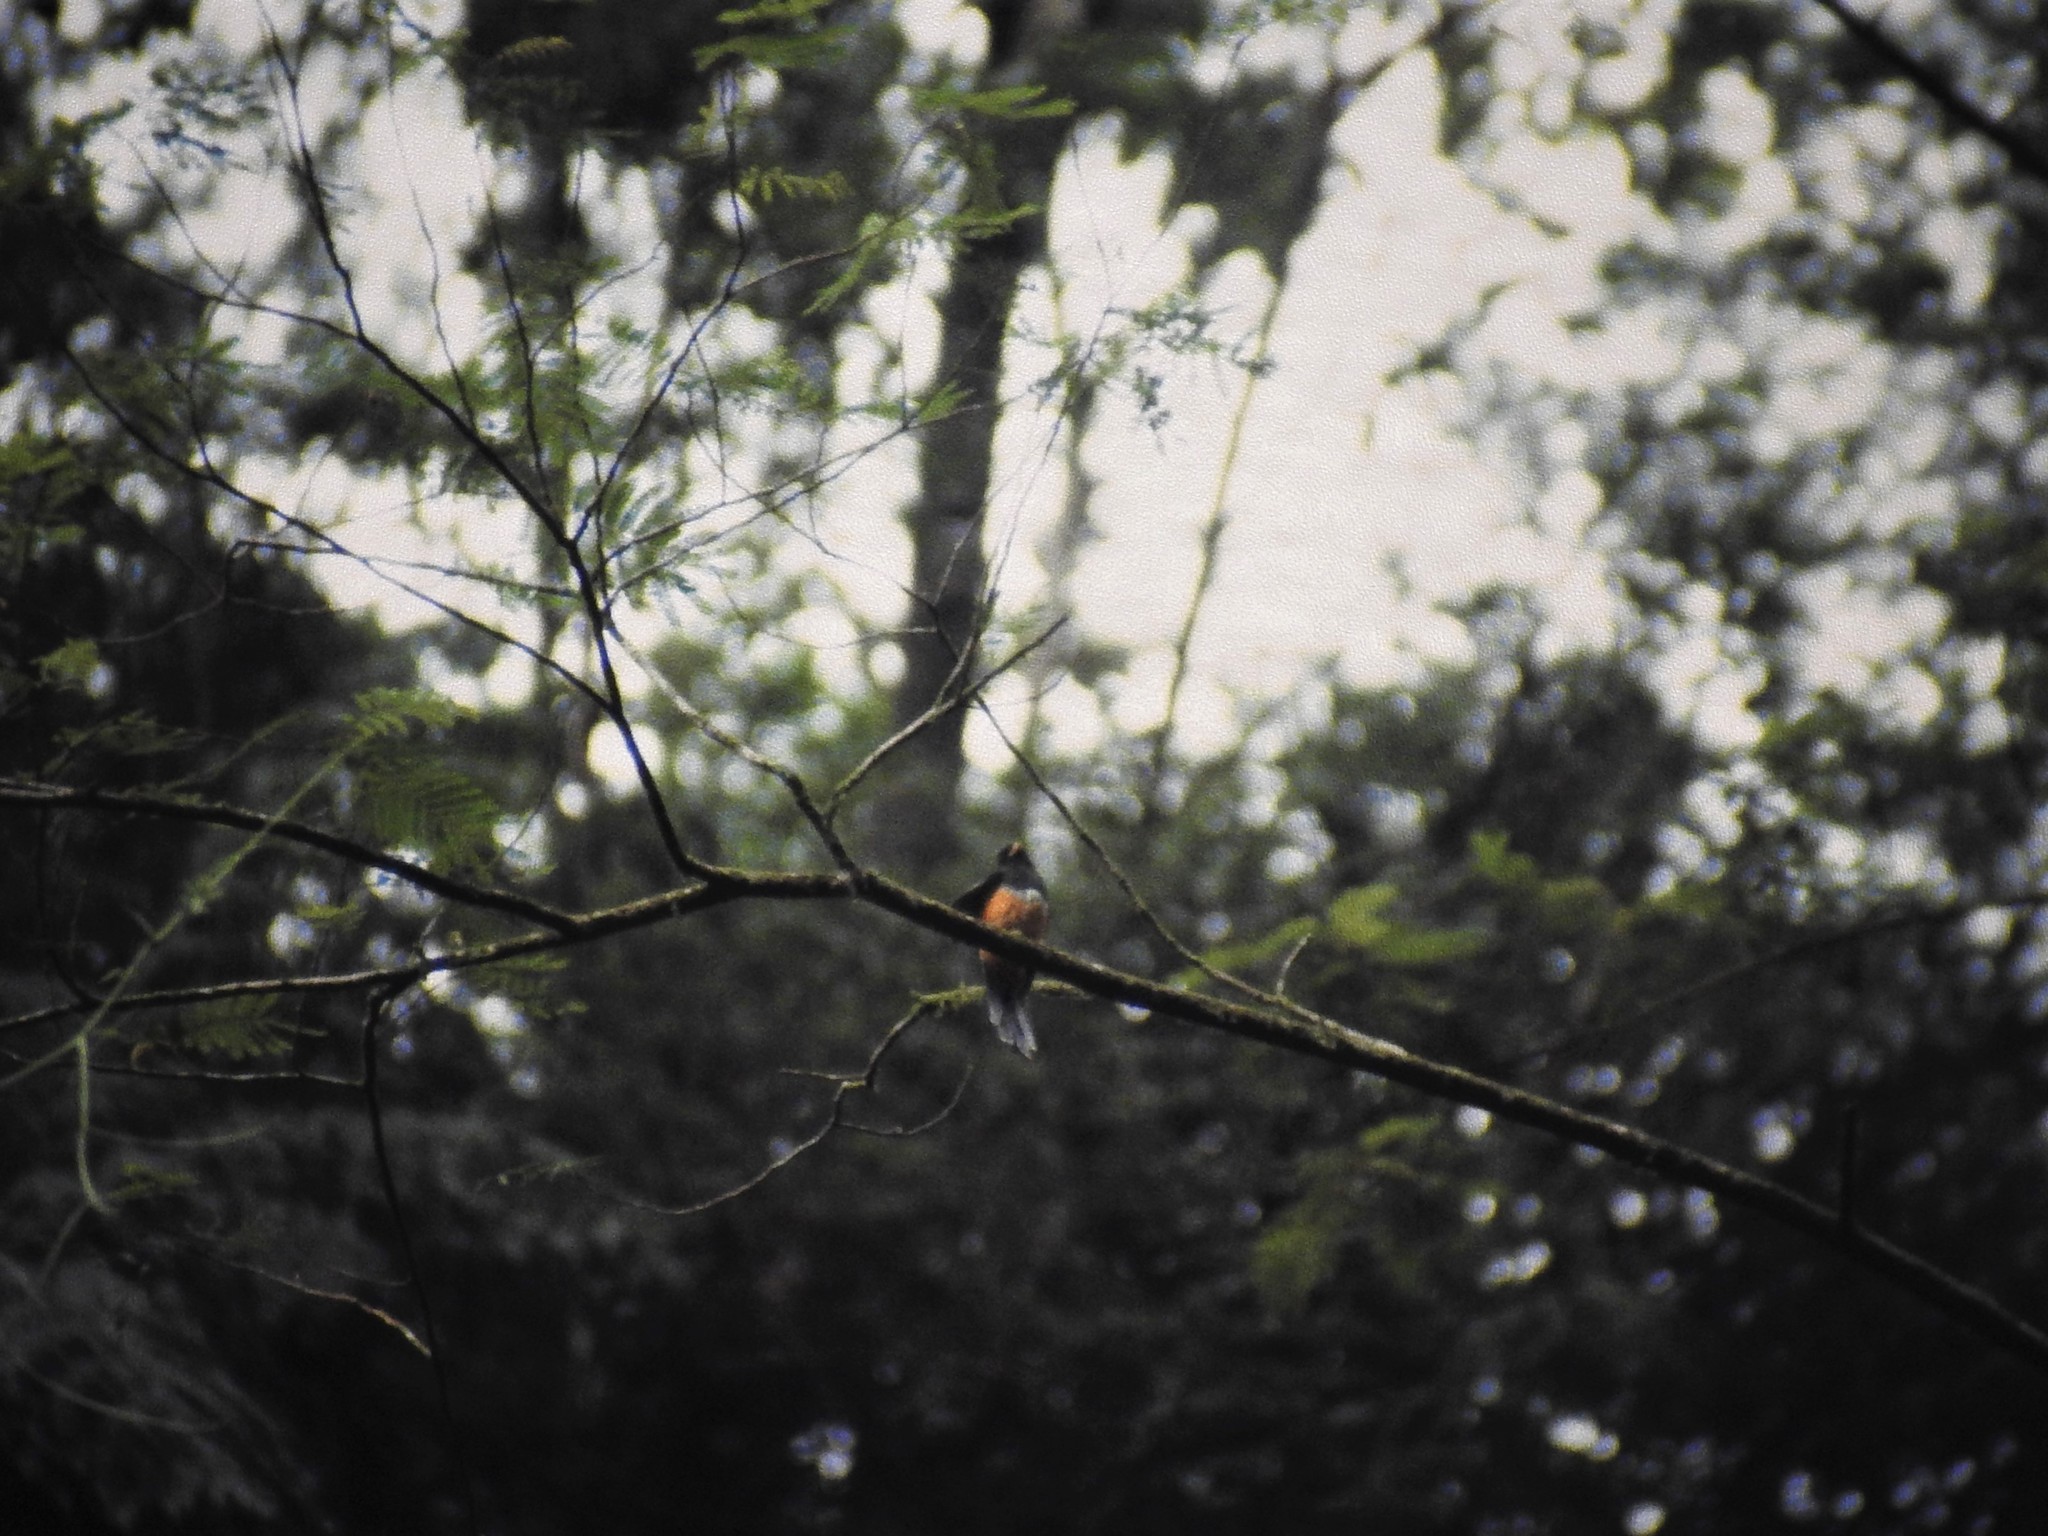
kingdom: Animalia
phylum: Chordata
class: Aves
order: Trogoniformes
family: Trogonidae
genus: Trogon
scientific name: Trogon collaris
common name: Collared trogon
